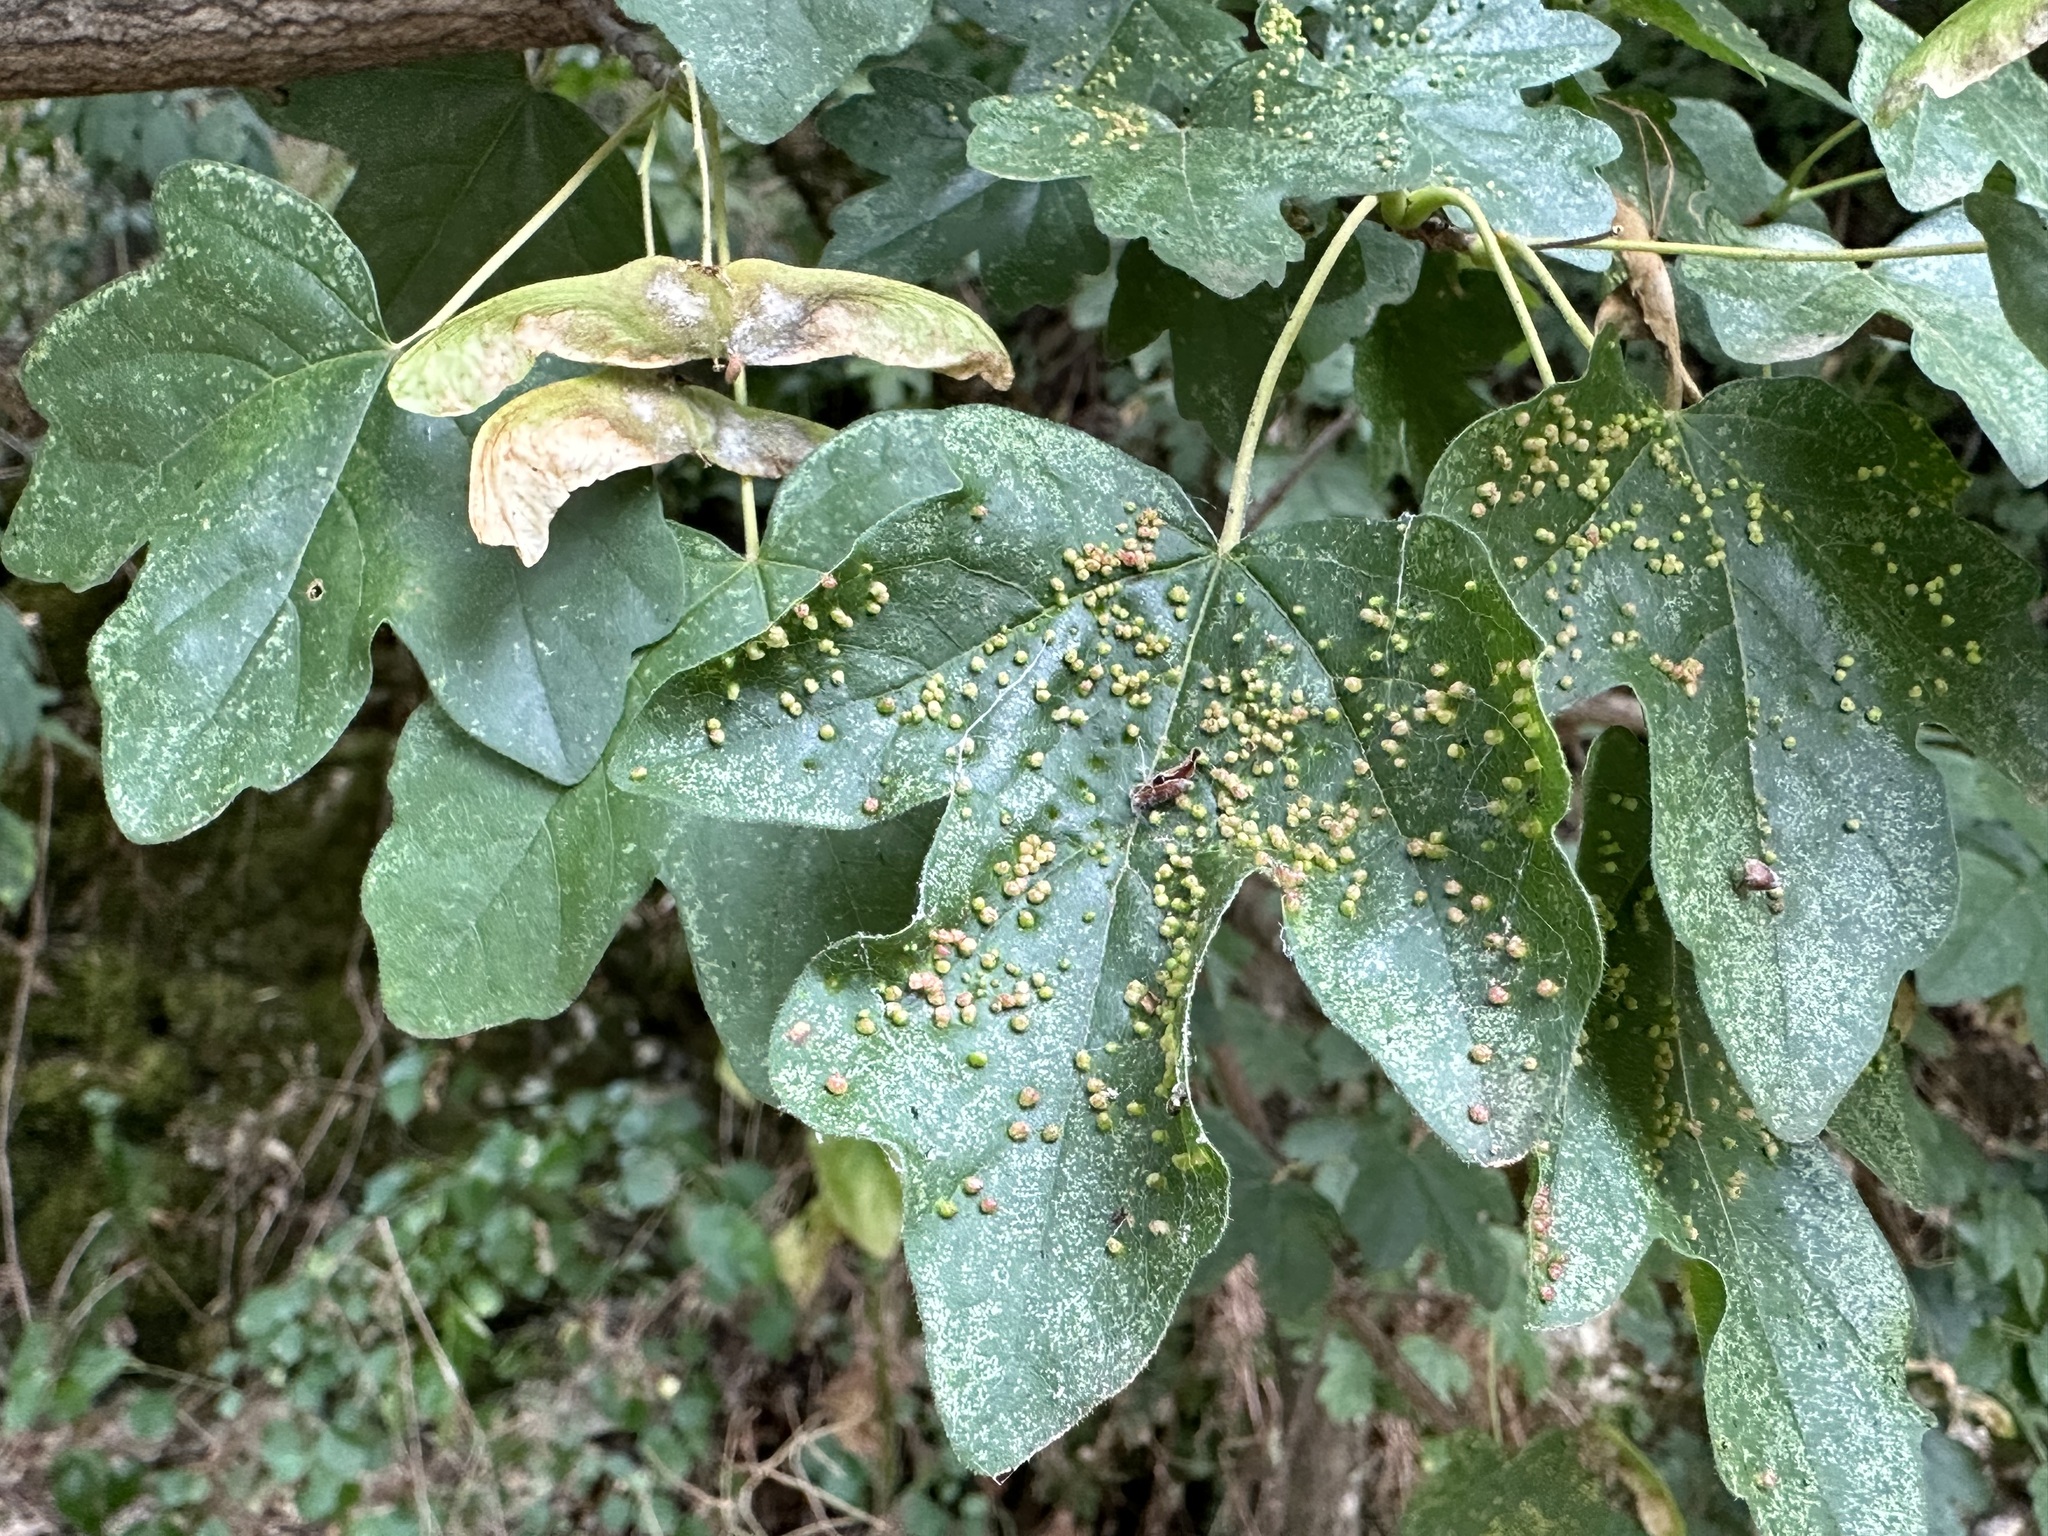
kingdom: Animalia
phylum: Arthropoda
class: Arachnida
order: Trombidiformes
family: Eriophyidae
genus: Aceria
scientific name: Aceria myriadeum
